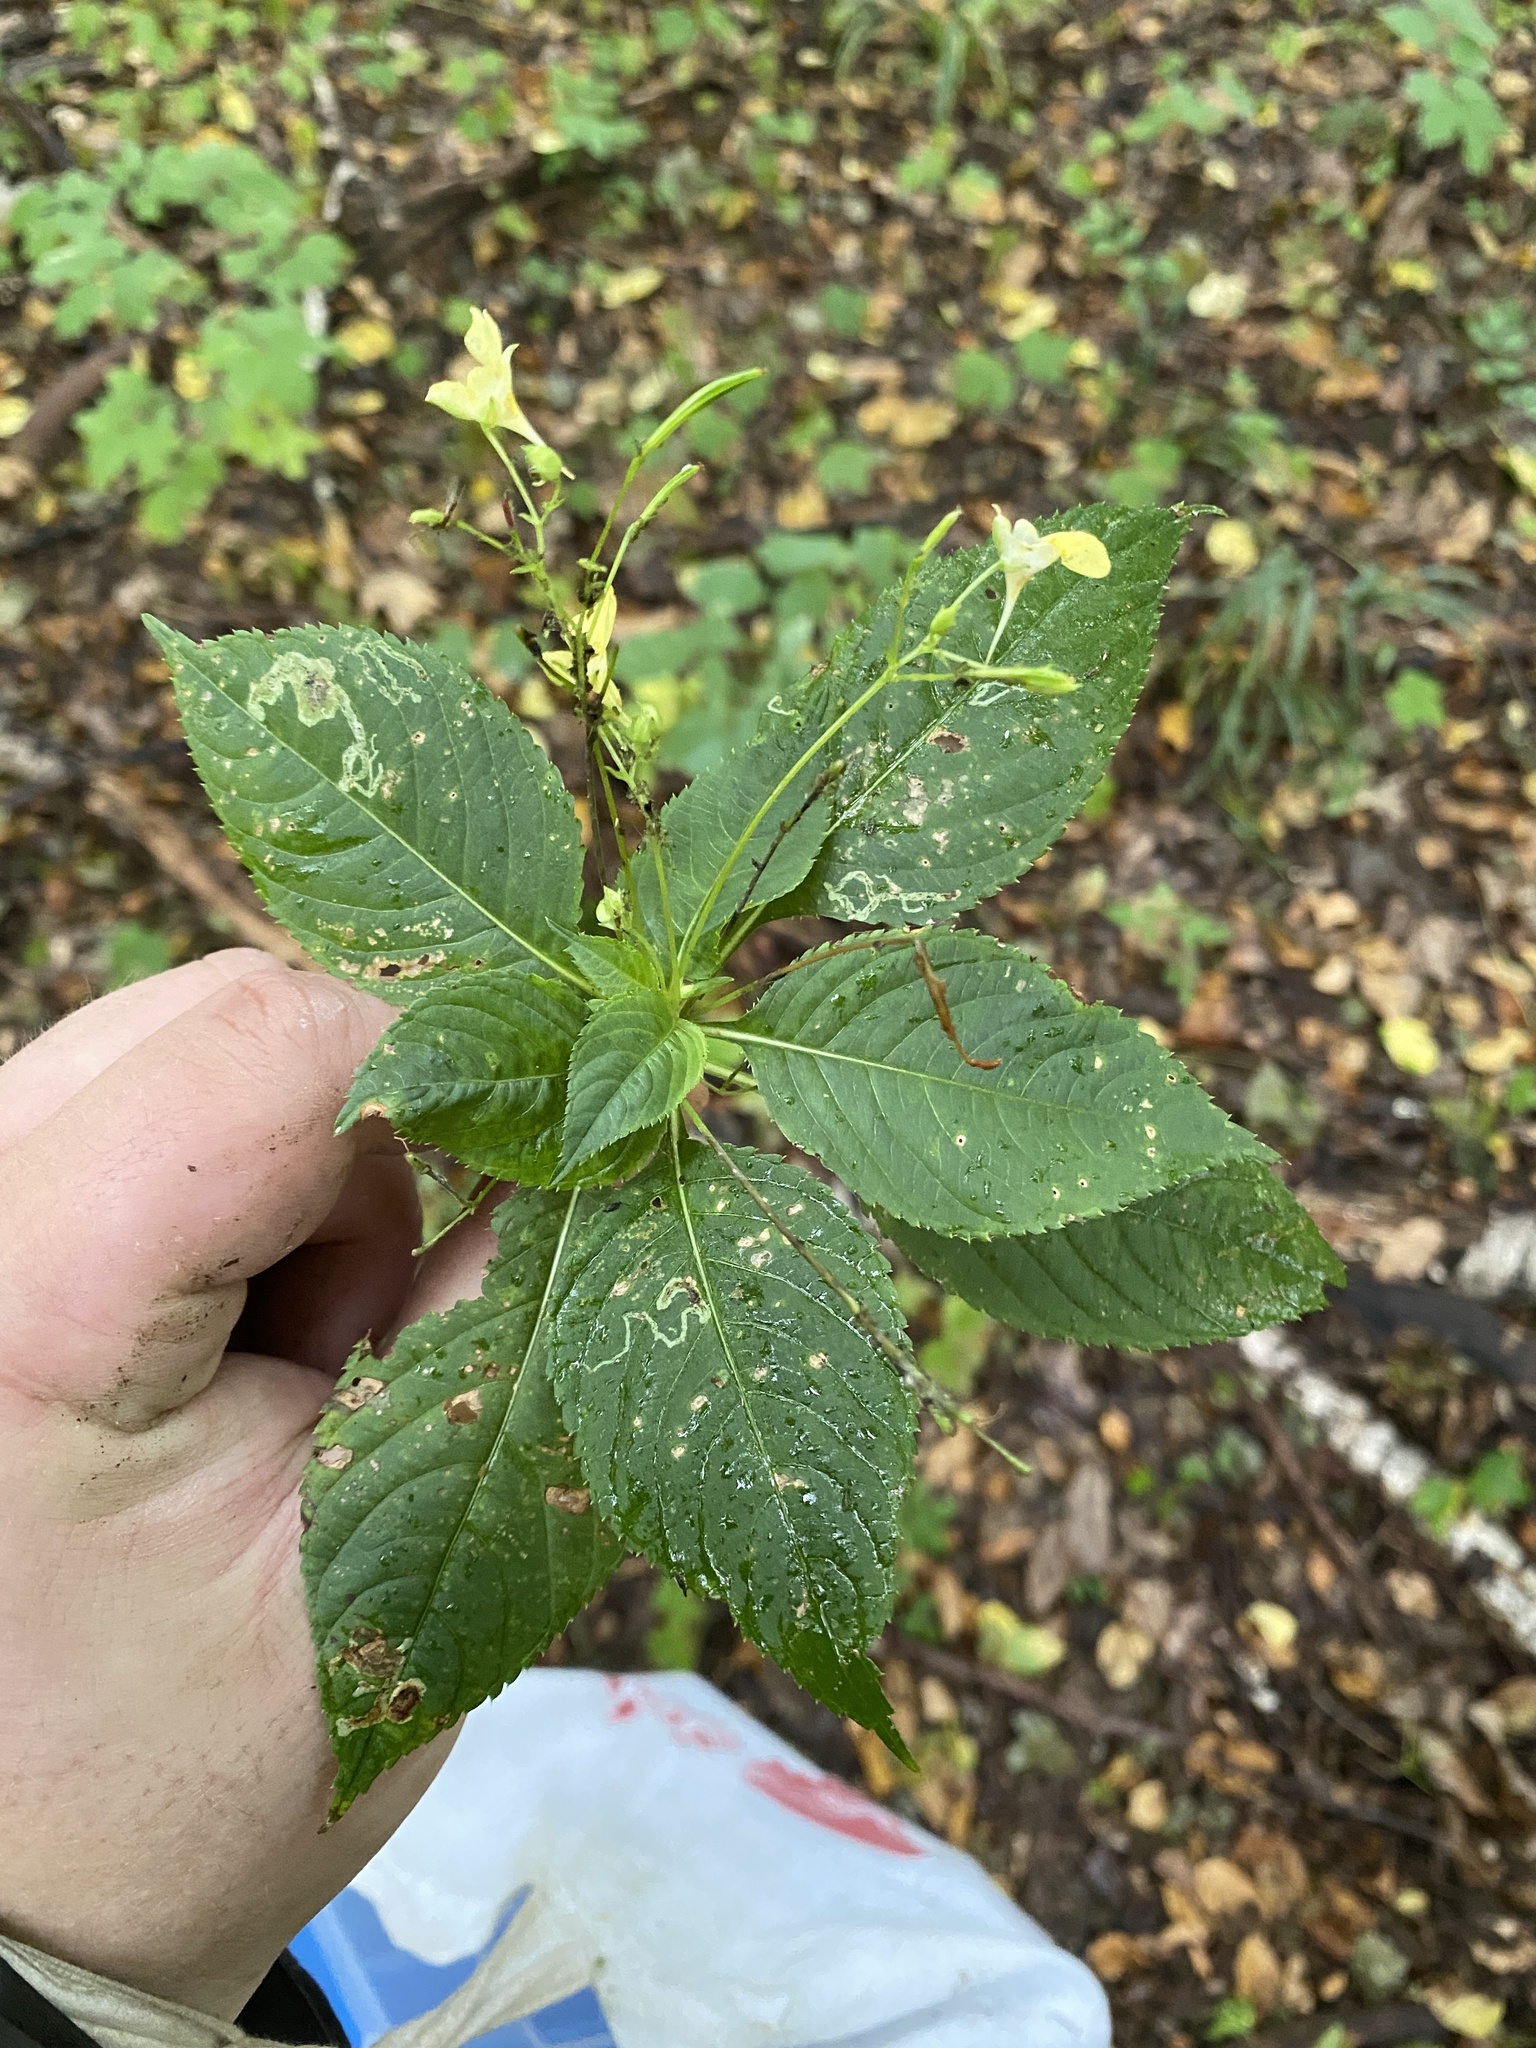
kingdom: Plantae
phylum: Tracheophyta
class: Magnoliopsida
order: Ericales
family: Balsaminaceae
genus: Impatiens
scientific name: Impatiens parviflora
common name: Small balsam
